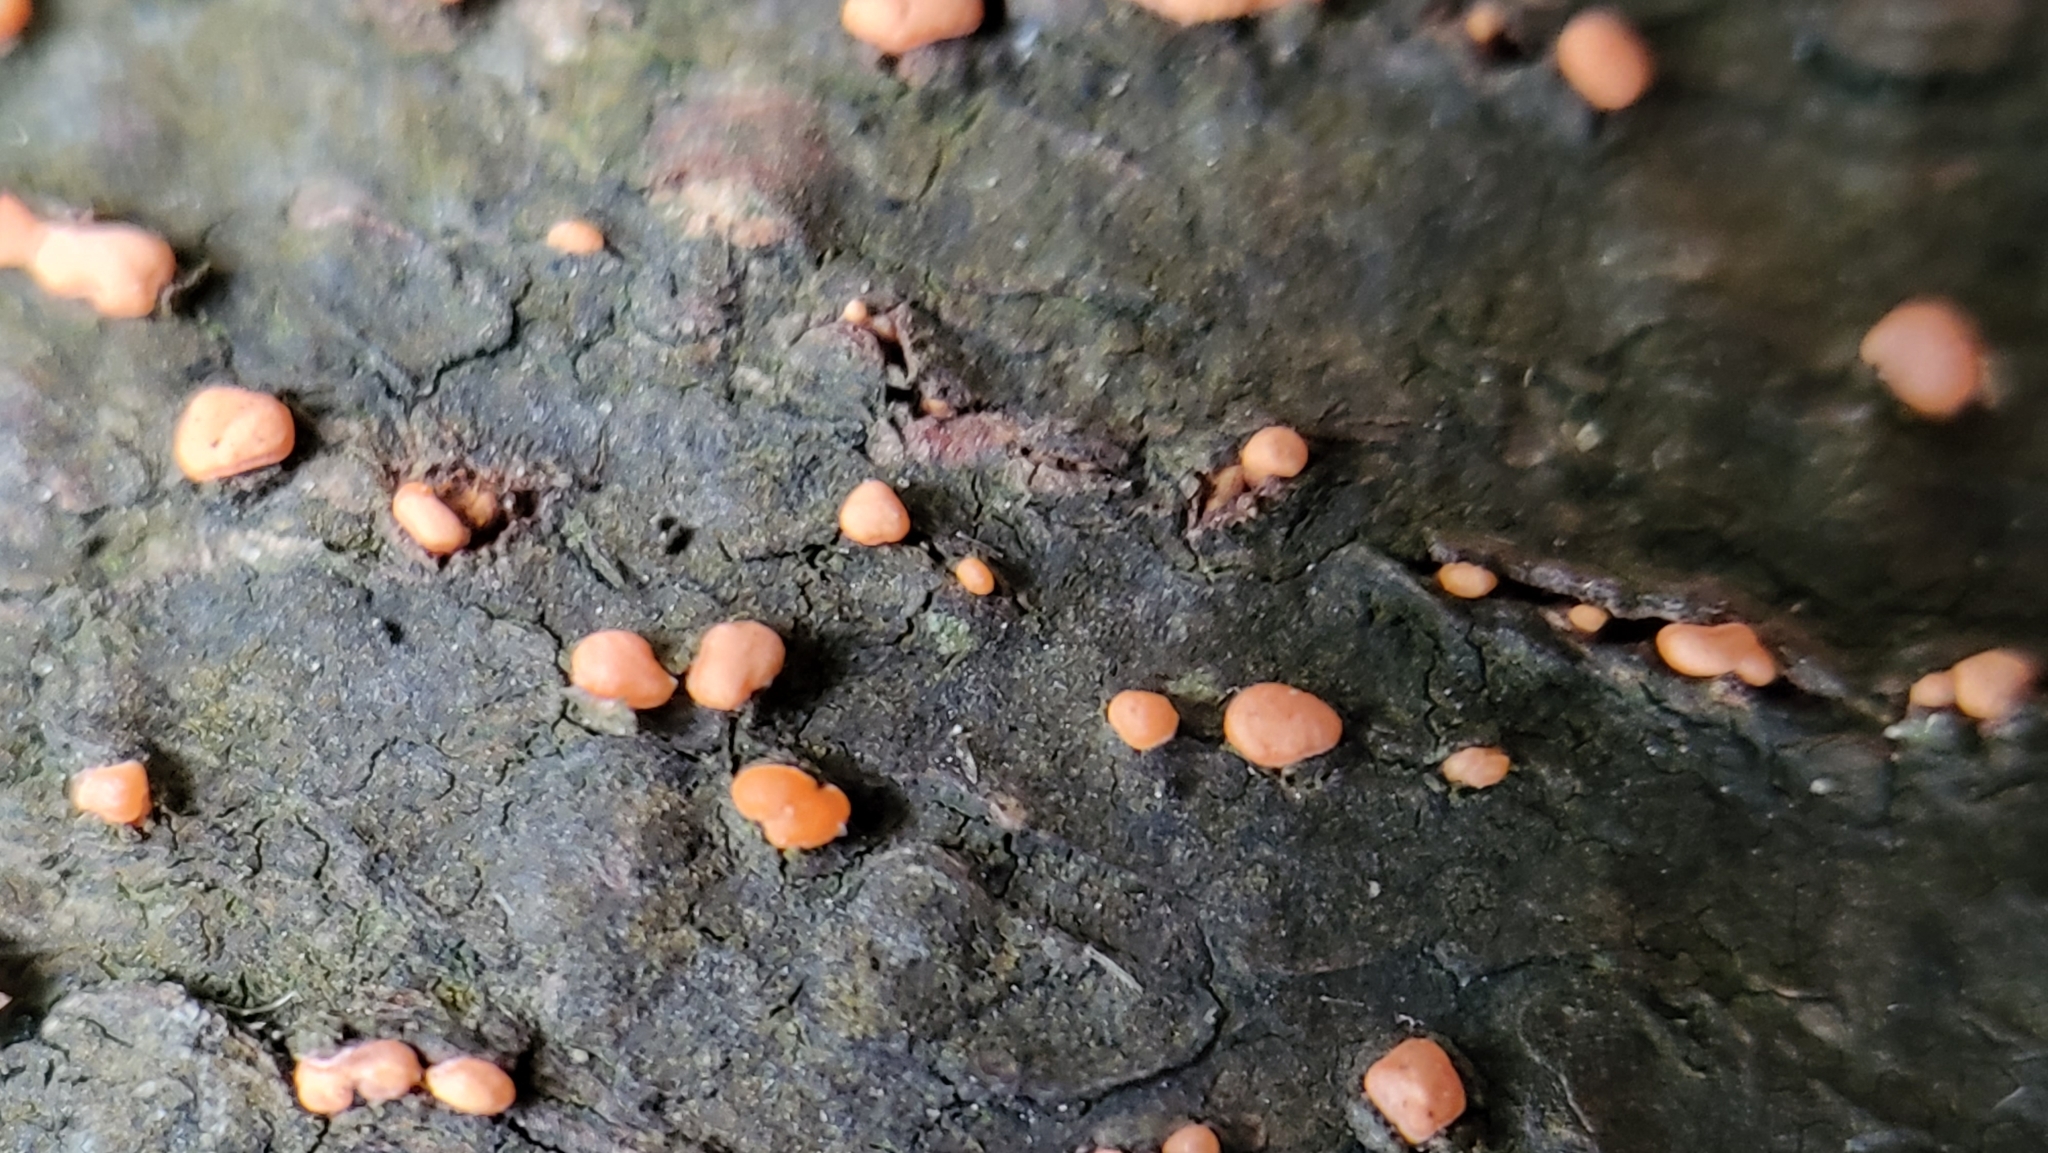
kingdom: Fungi
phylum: Ascomycota
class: Sordariomycetes
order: Hypocreales
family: Nectriaceae
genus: Nectria
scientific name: Nectria cinnabarina
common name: Coral spot
